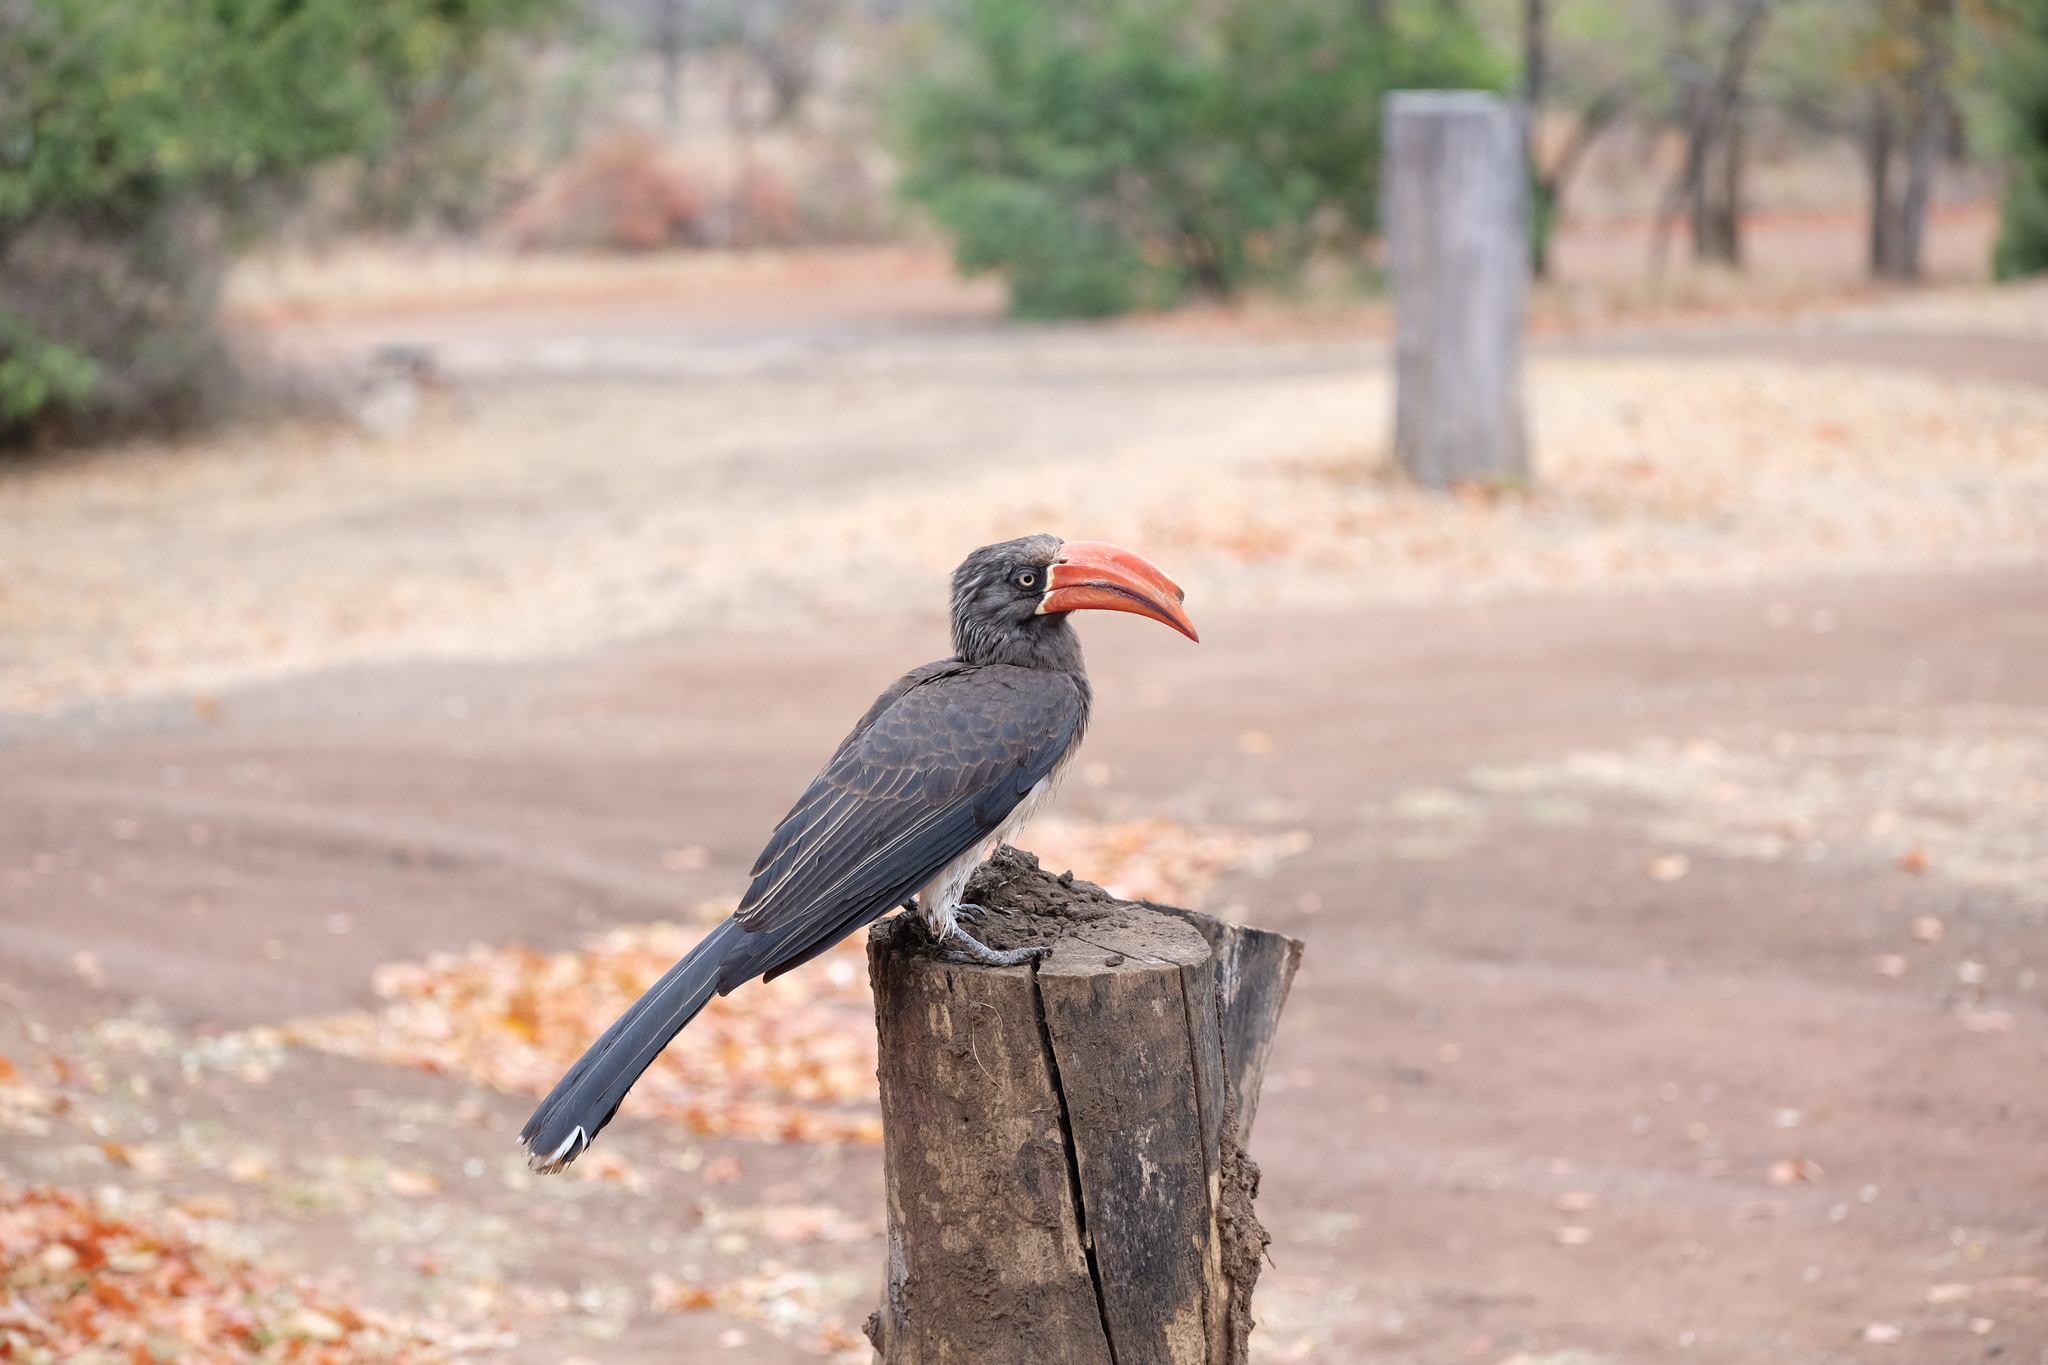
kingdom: Animalia
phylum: Chordata
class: Aves
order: Bucerotiformes
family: Bucerotidae
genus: Lophoceros
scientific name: Lophoceros alboterminatus
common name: Crowned hornbill
